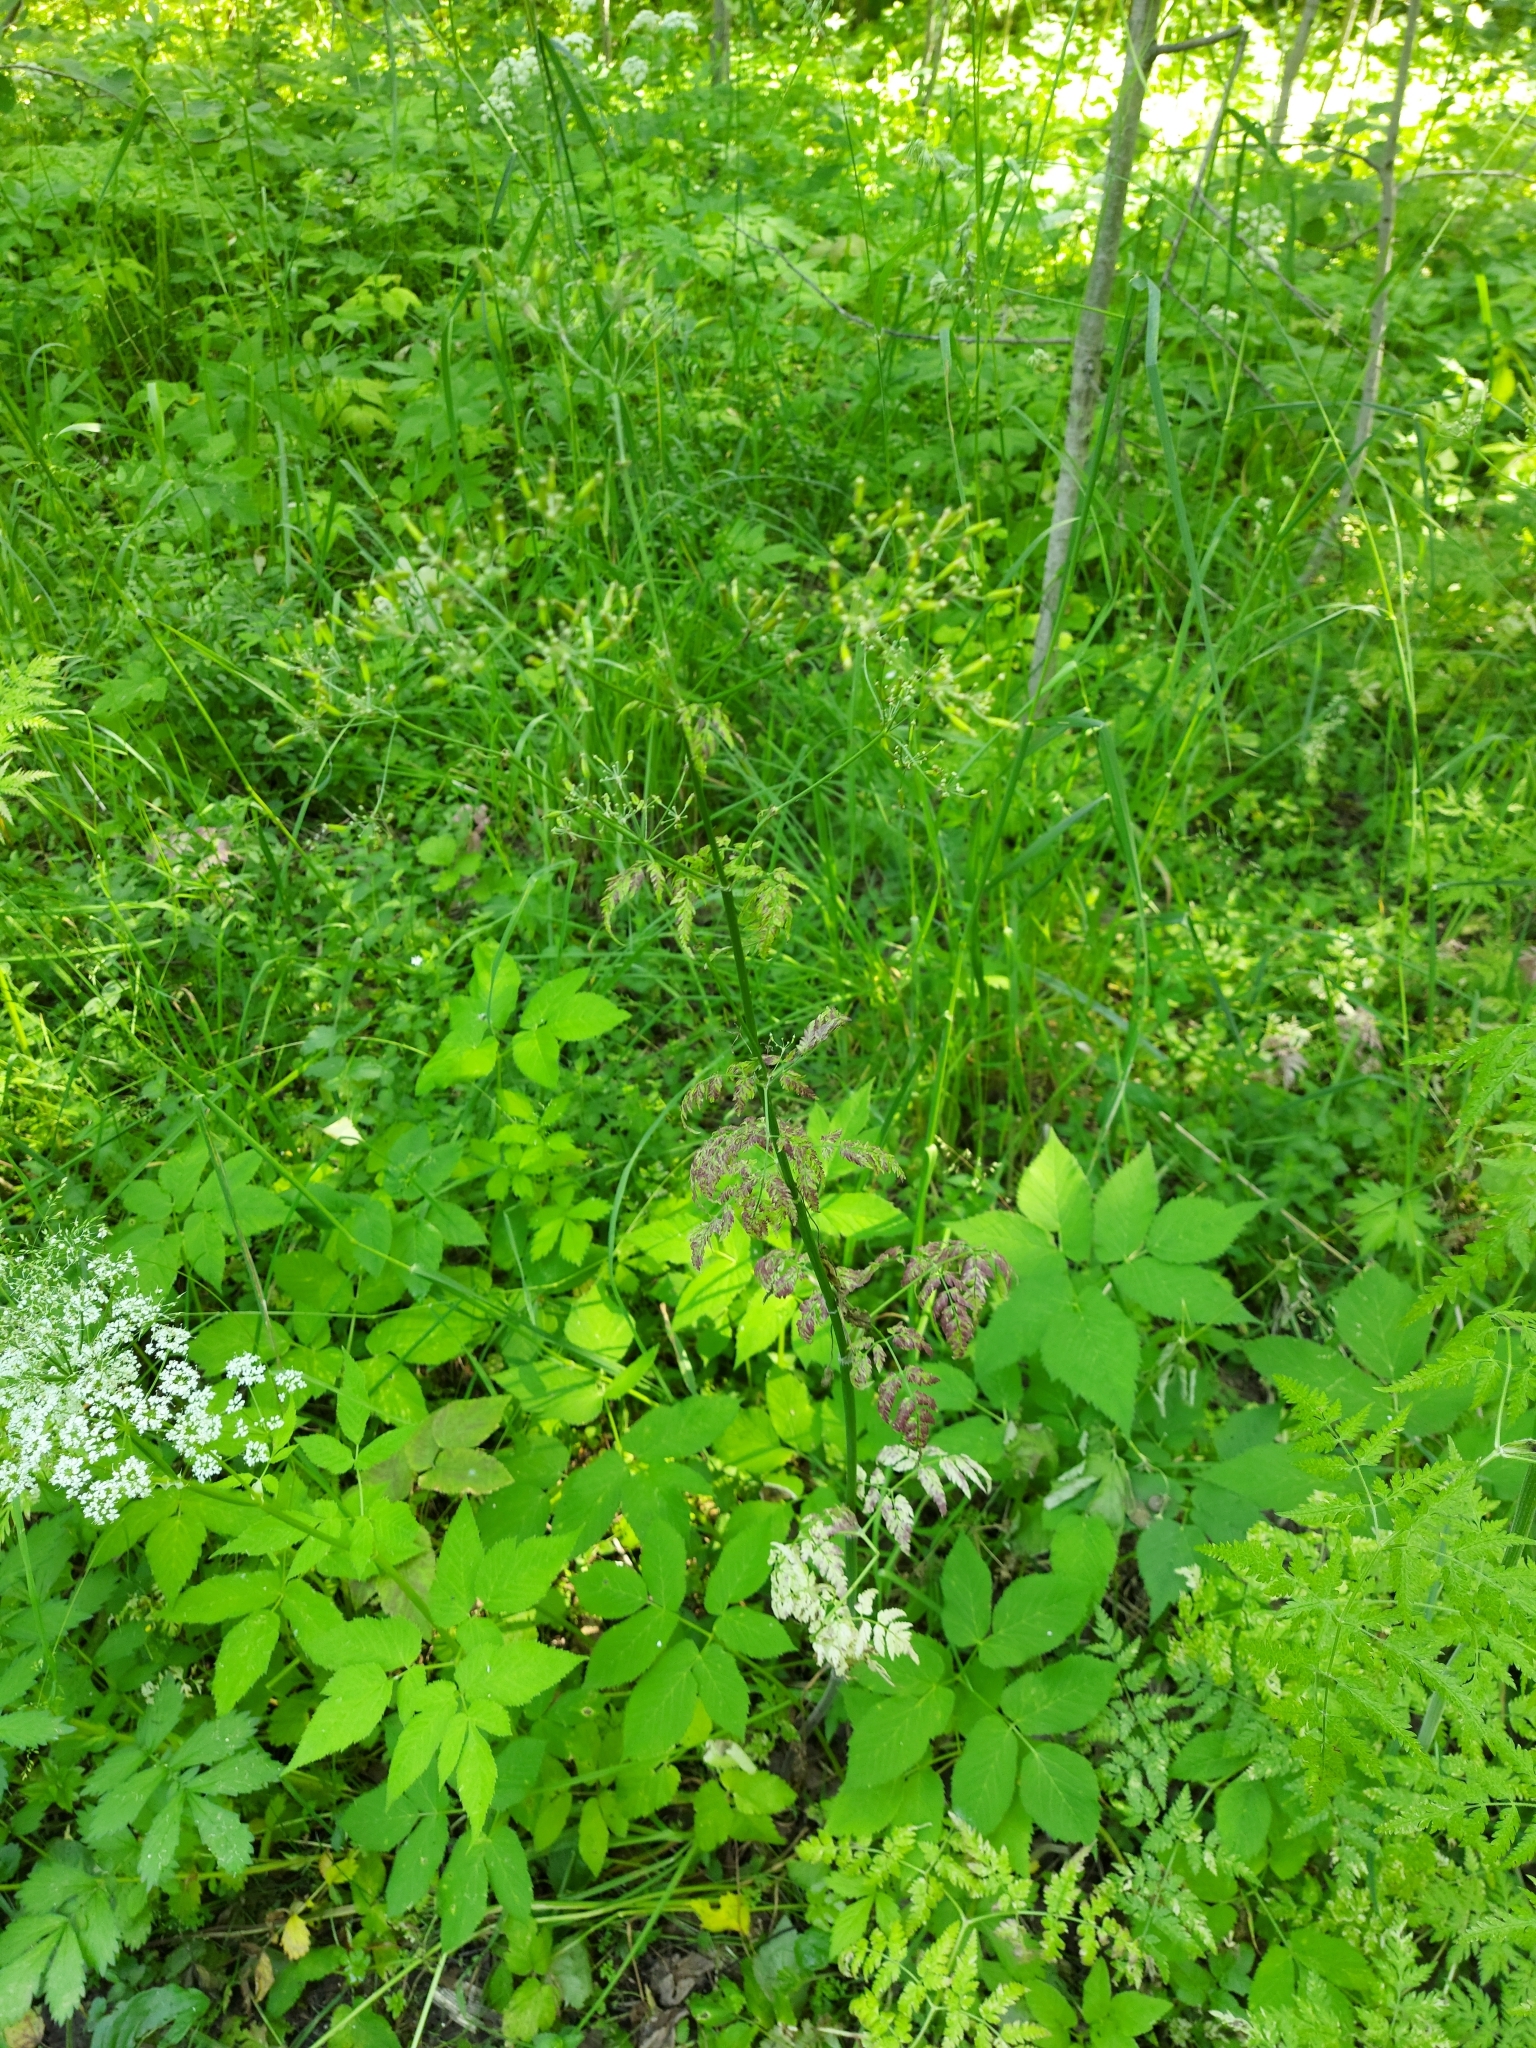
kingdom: Plantae
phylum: Tracheophyta
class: Magnoliopsida
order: Apiales
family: Apiaceae
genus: Anthriscus
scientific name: Anthriscus sylvestris
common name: Cow parsley
